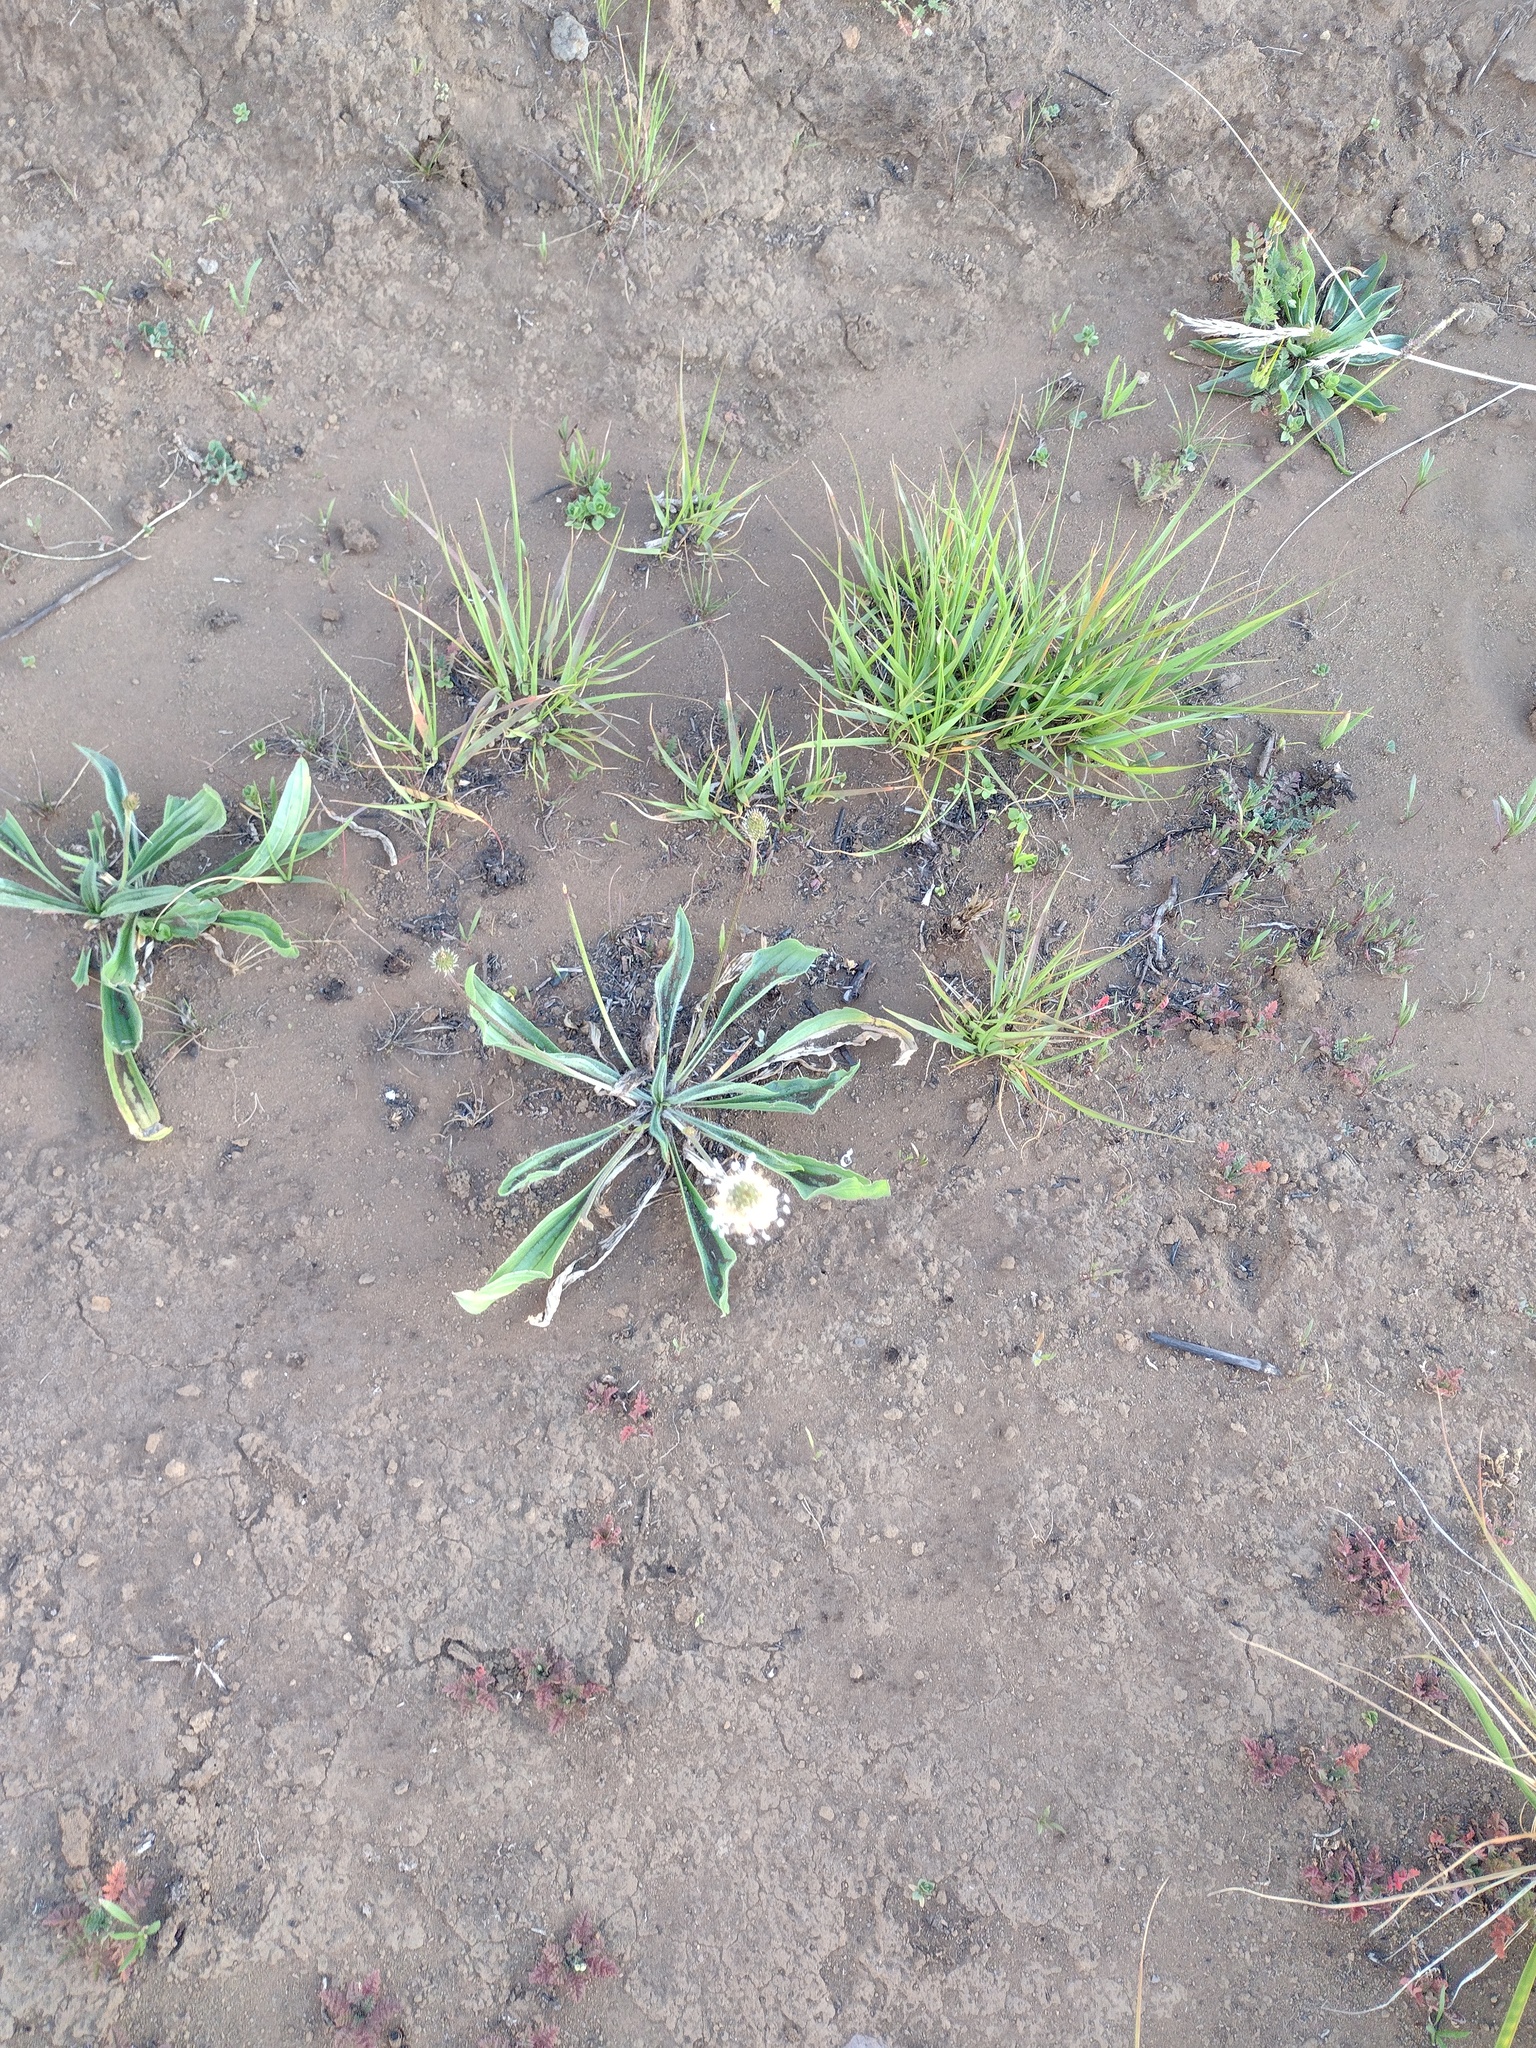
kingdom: Plantae
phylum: Tracheophyta
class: Magnoliopsida
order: Lamiales
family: Plantaginaceae
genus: Plantago
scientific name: Plantago lanceolata
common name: Ribwort plantain
